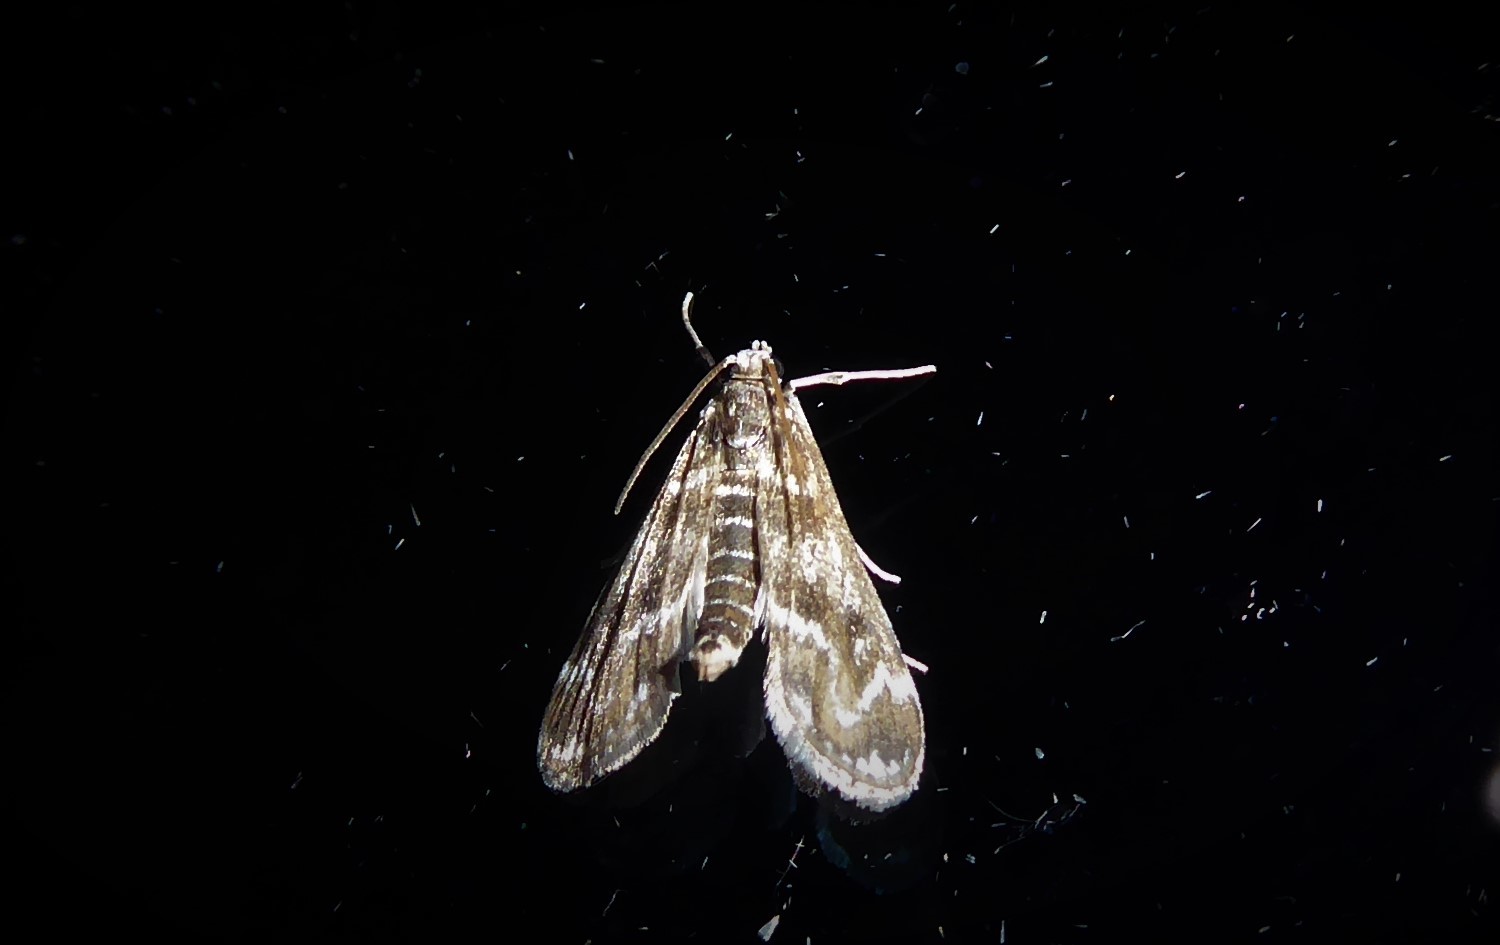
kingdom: Animalia
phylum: Arthropoda
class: Insecta
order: Lepidoptera
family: Crambidae
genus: Hygraula
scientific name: Hygraula nitens
